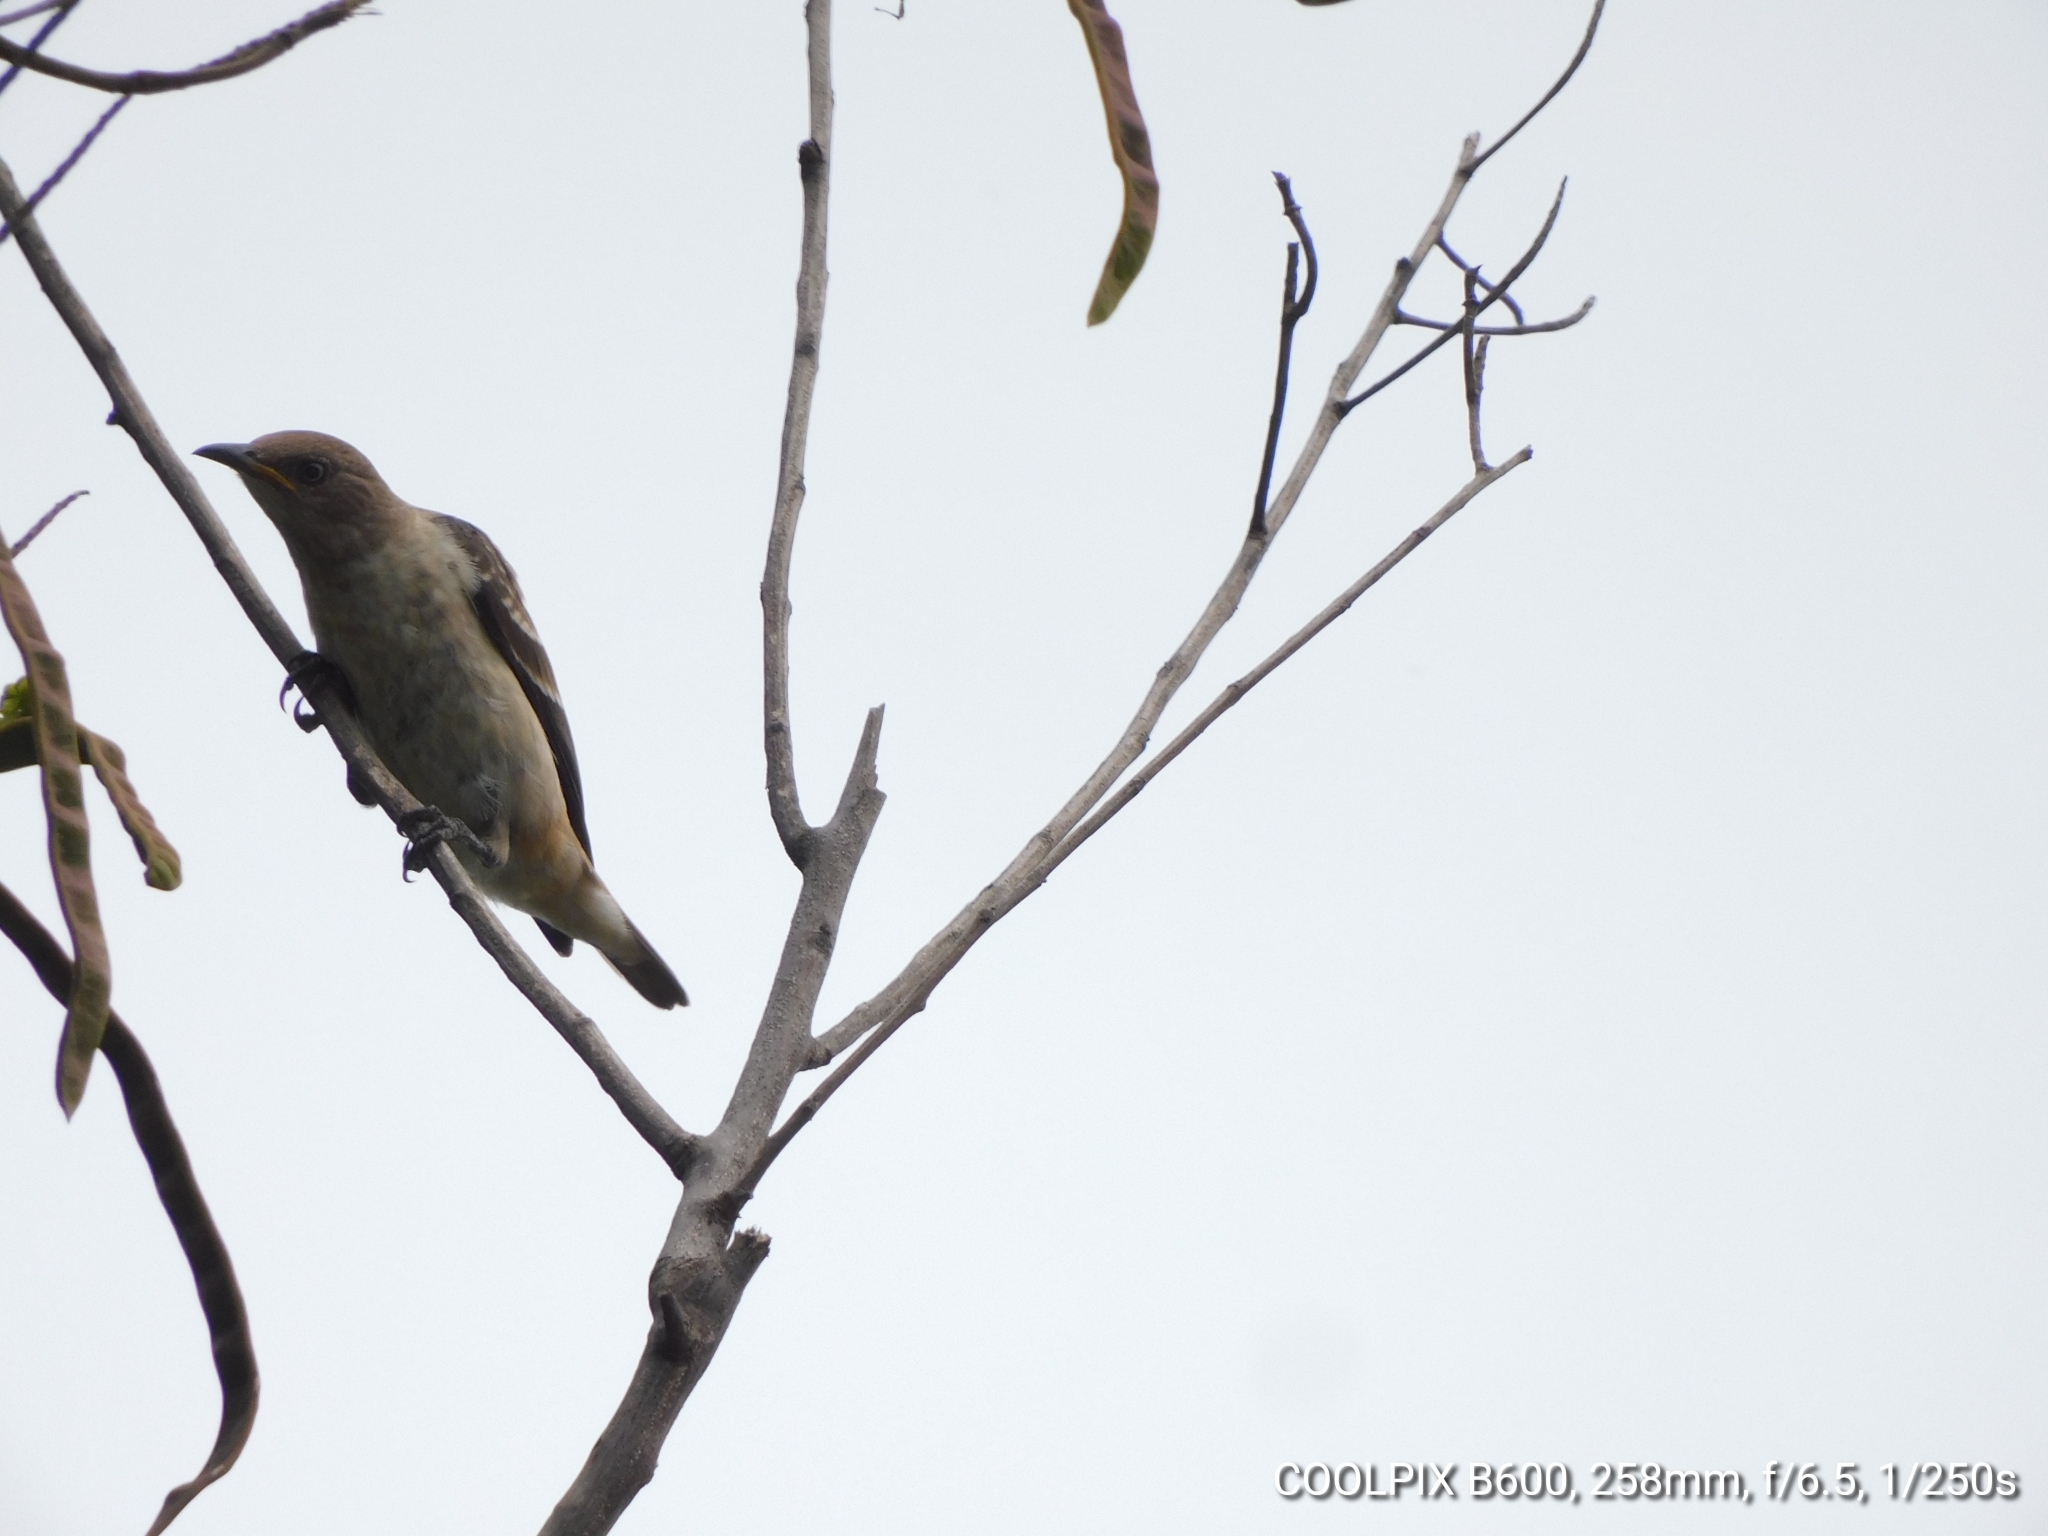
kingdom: Animalia
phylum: Chordata
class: Aves
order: Passeriformes
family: Sturnidae
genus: Saroglossa
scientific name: Saroglossa spiloptera
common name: Spot-winged starling
